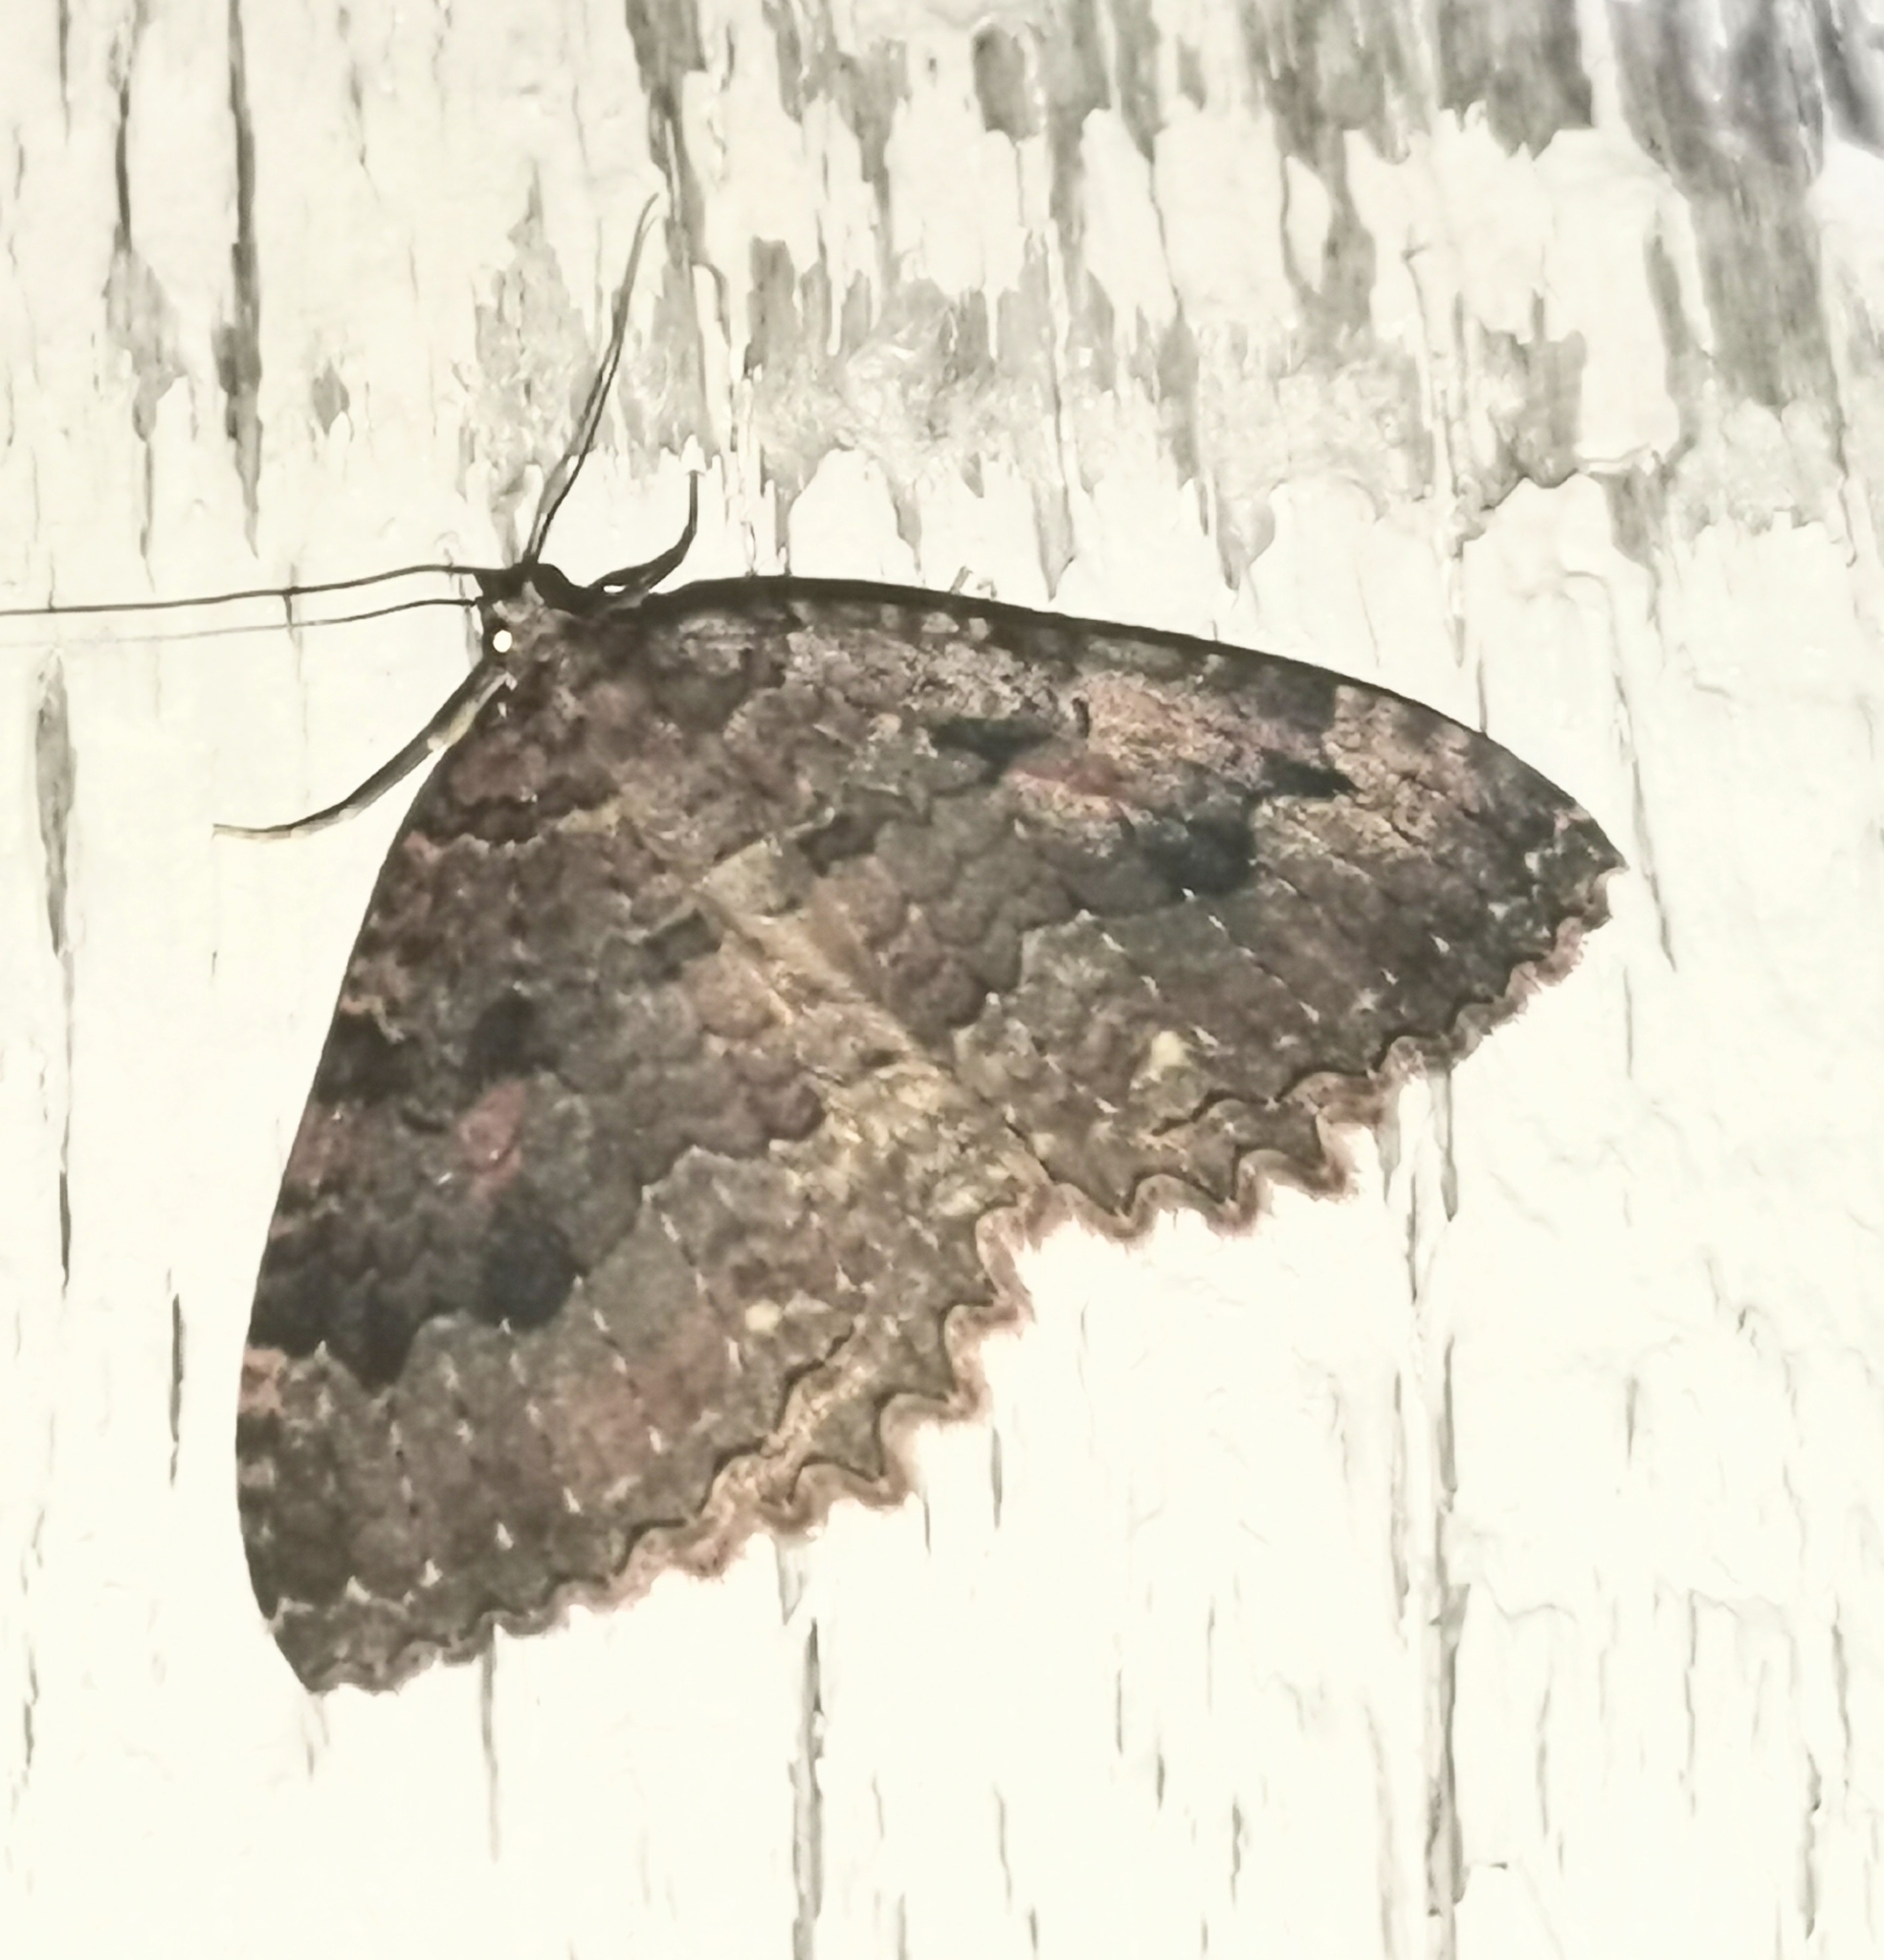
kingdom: Animalia
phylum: Arthropoda
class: Insecta
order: Lepidoptera
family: Geometridae
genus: Triphosa
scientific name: Triphosa dubitata
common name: Tissue
